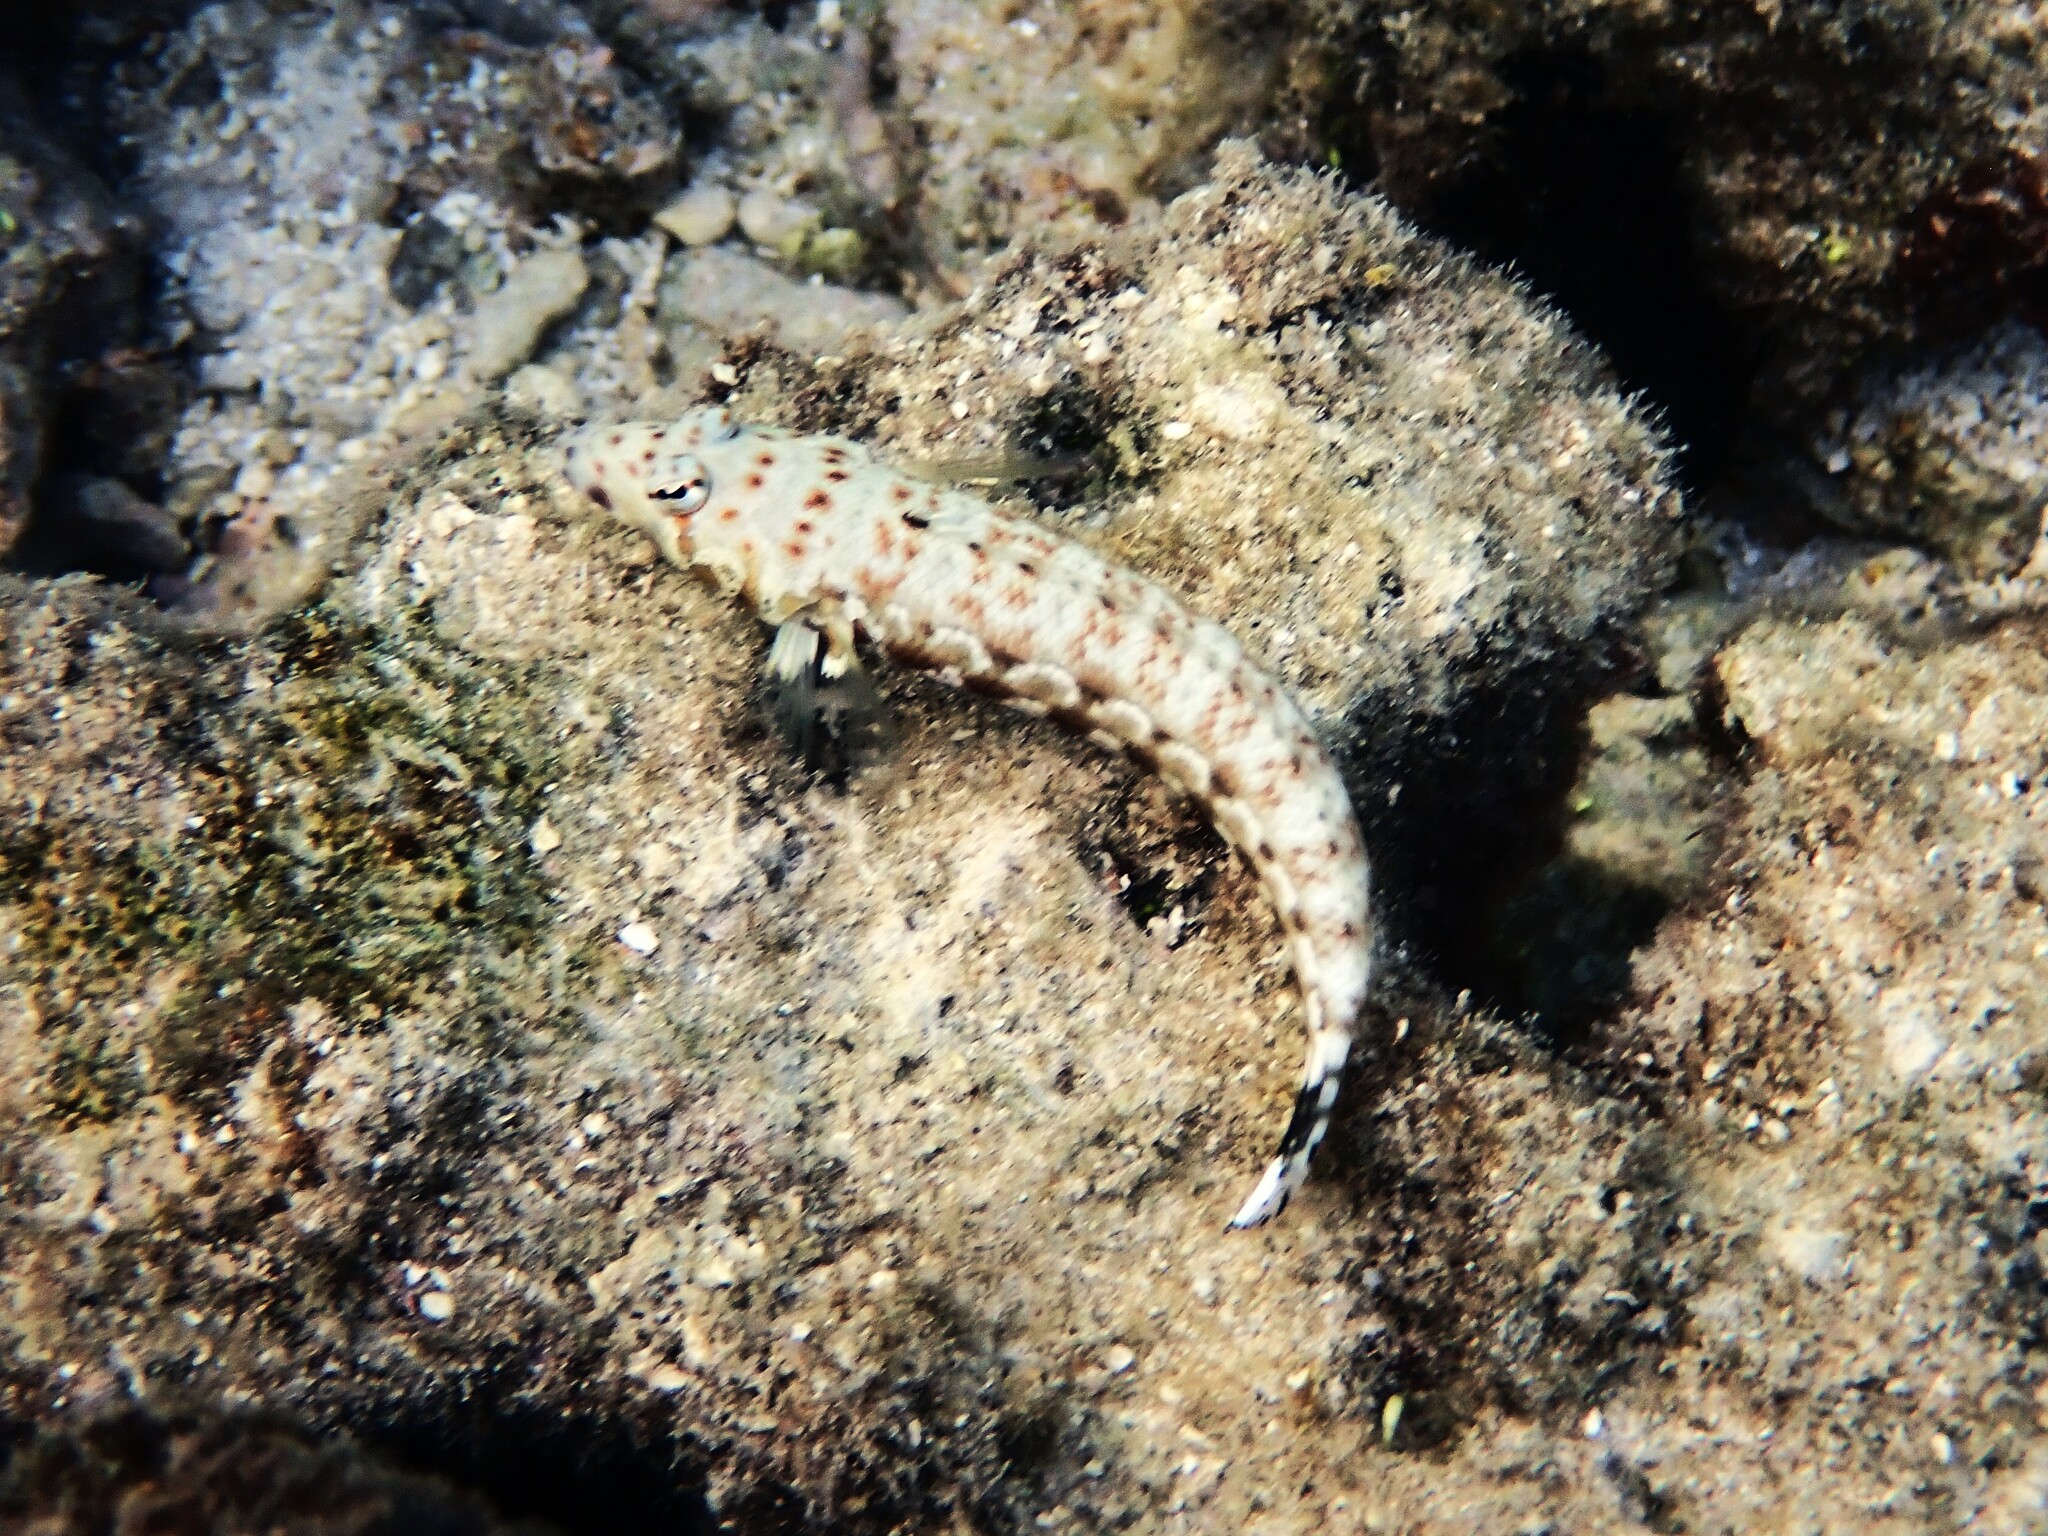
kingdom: Animalia
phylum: Chordata
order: Perciformes
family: Pinguipedidae
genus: Parapercis
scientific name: Parapercis millepunctata
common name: Black-dotted sandperch
